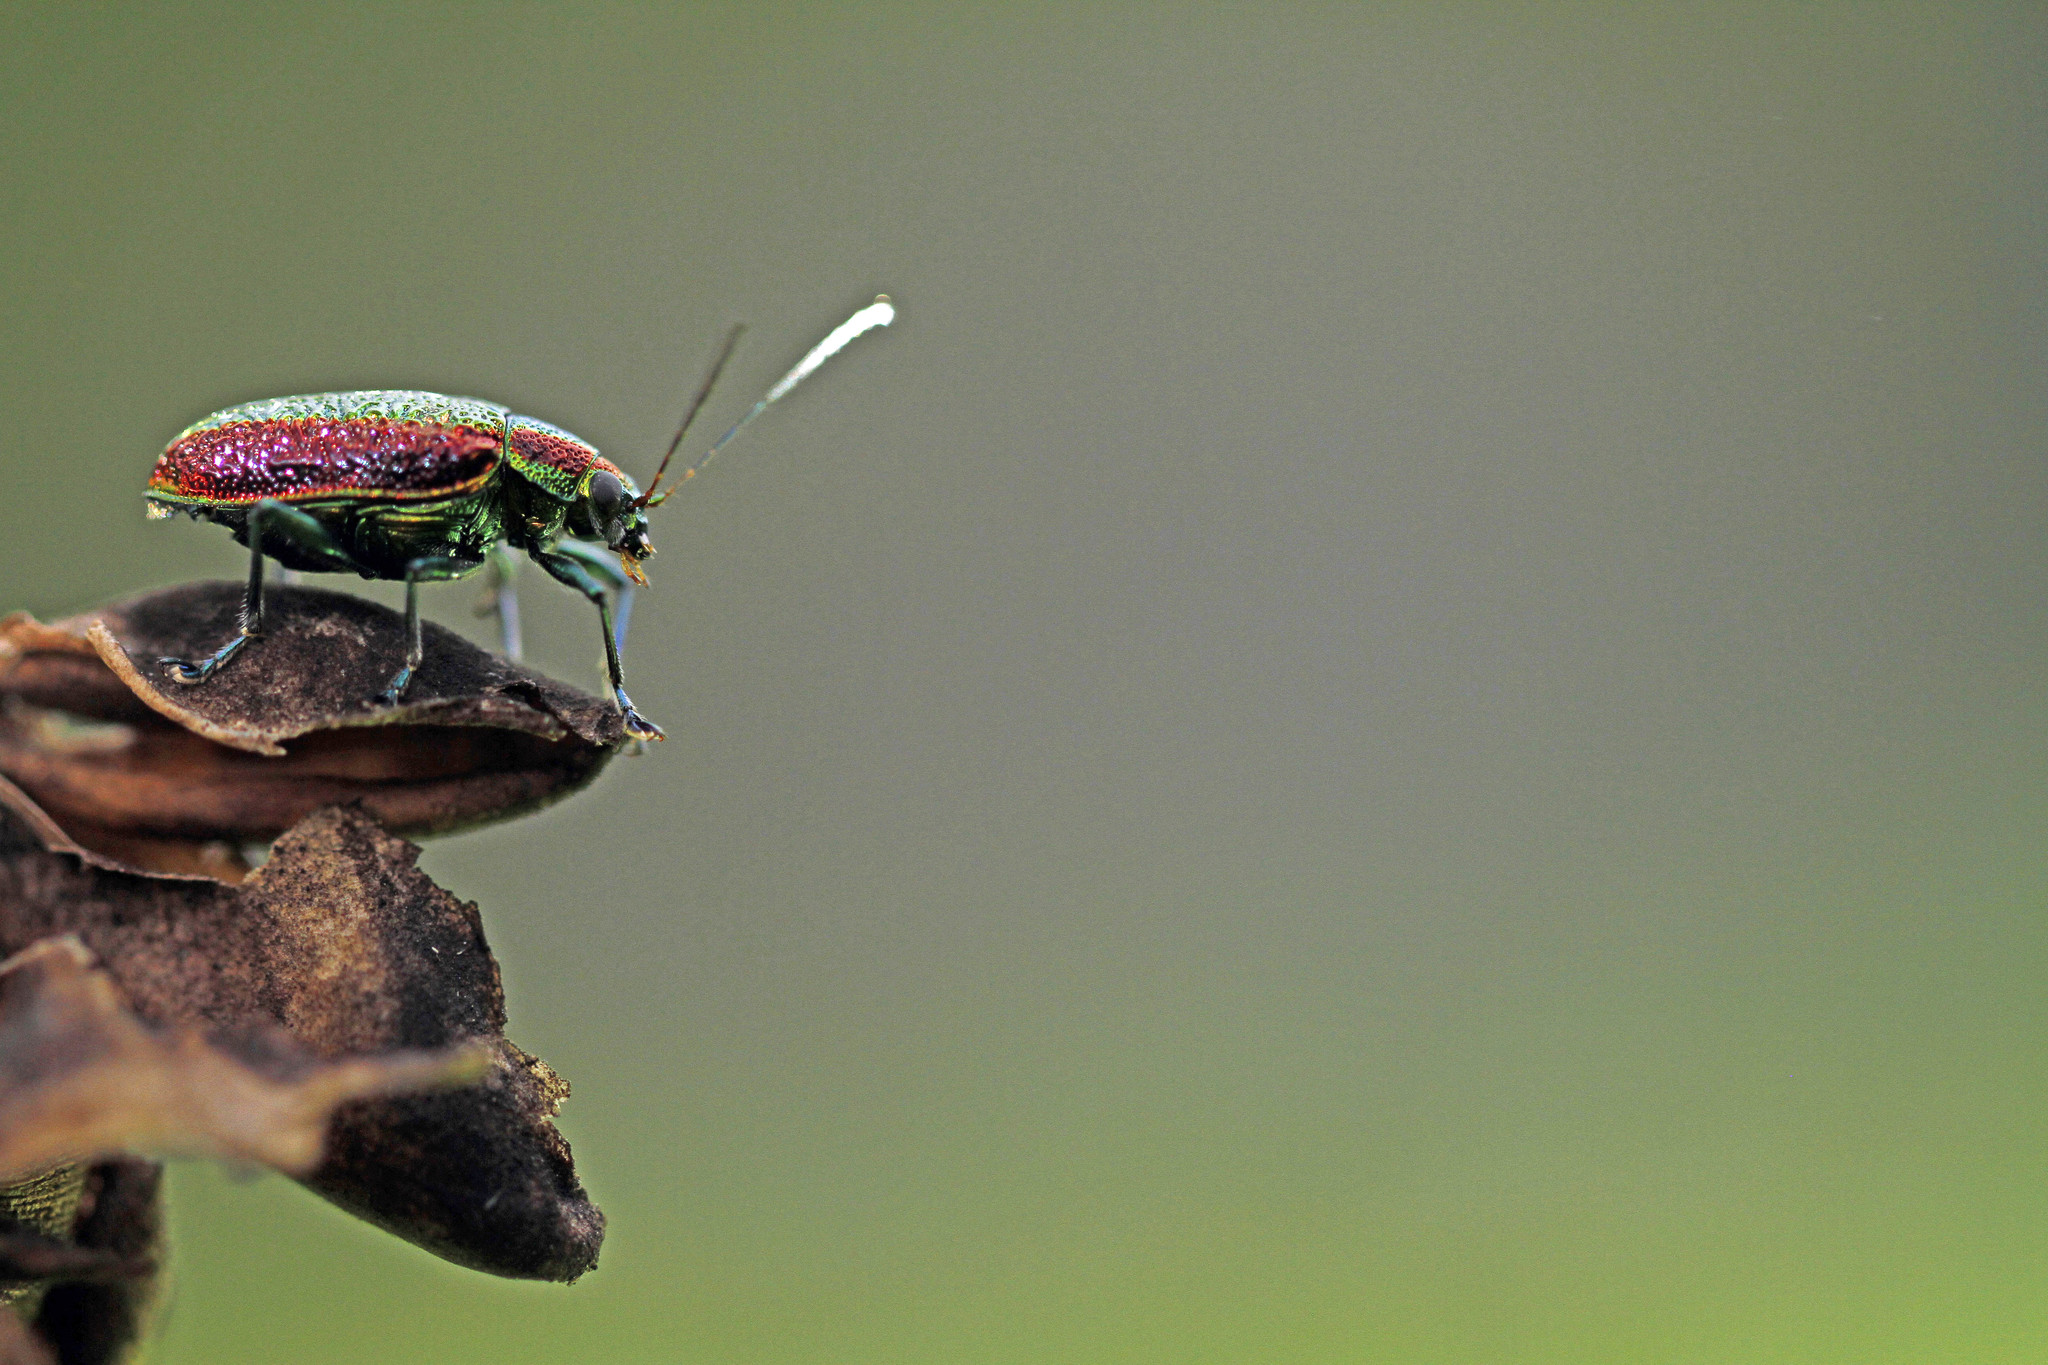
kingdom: Animalia
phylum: Arthropoda
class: Insecta
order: Coleoptera
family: Chrysomelidae
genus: Adorea
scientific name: Adorea
